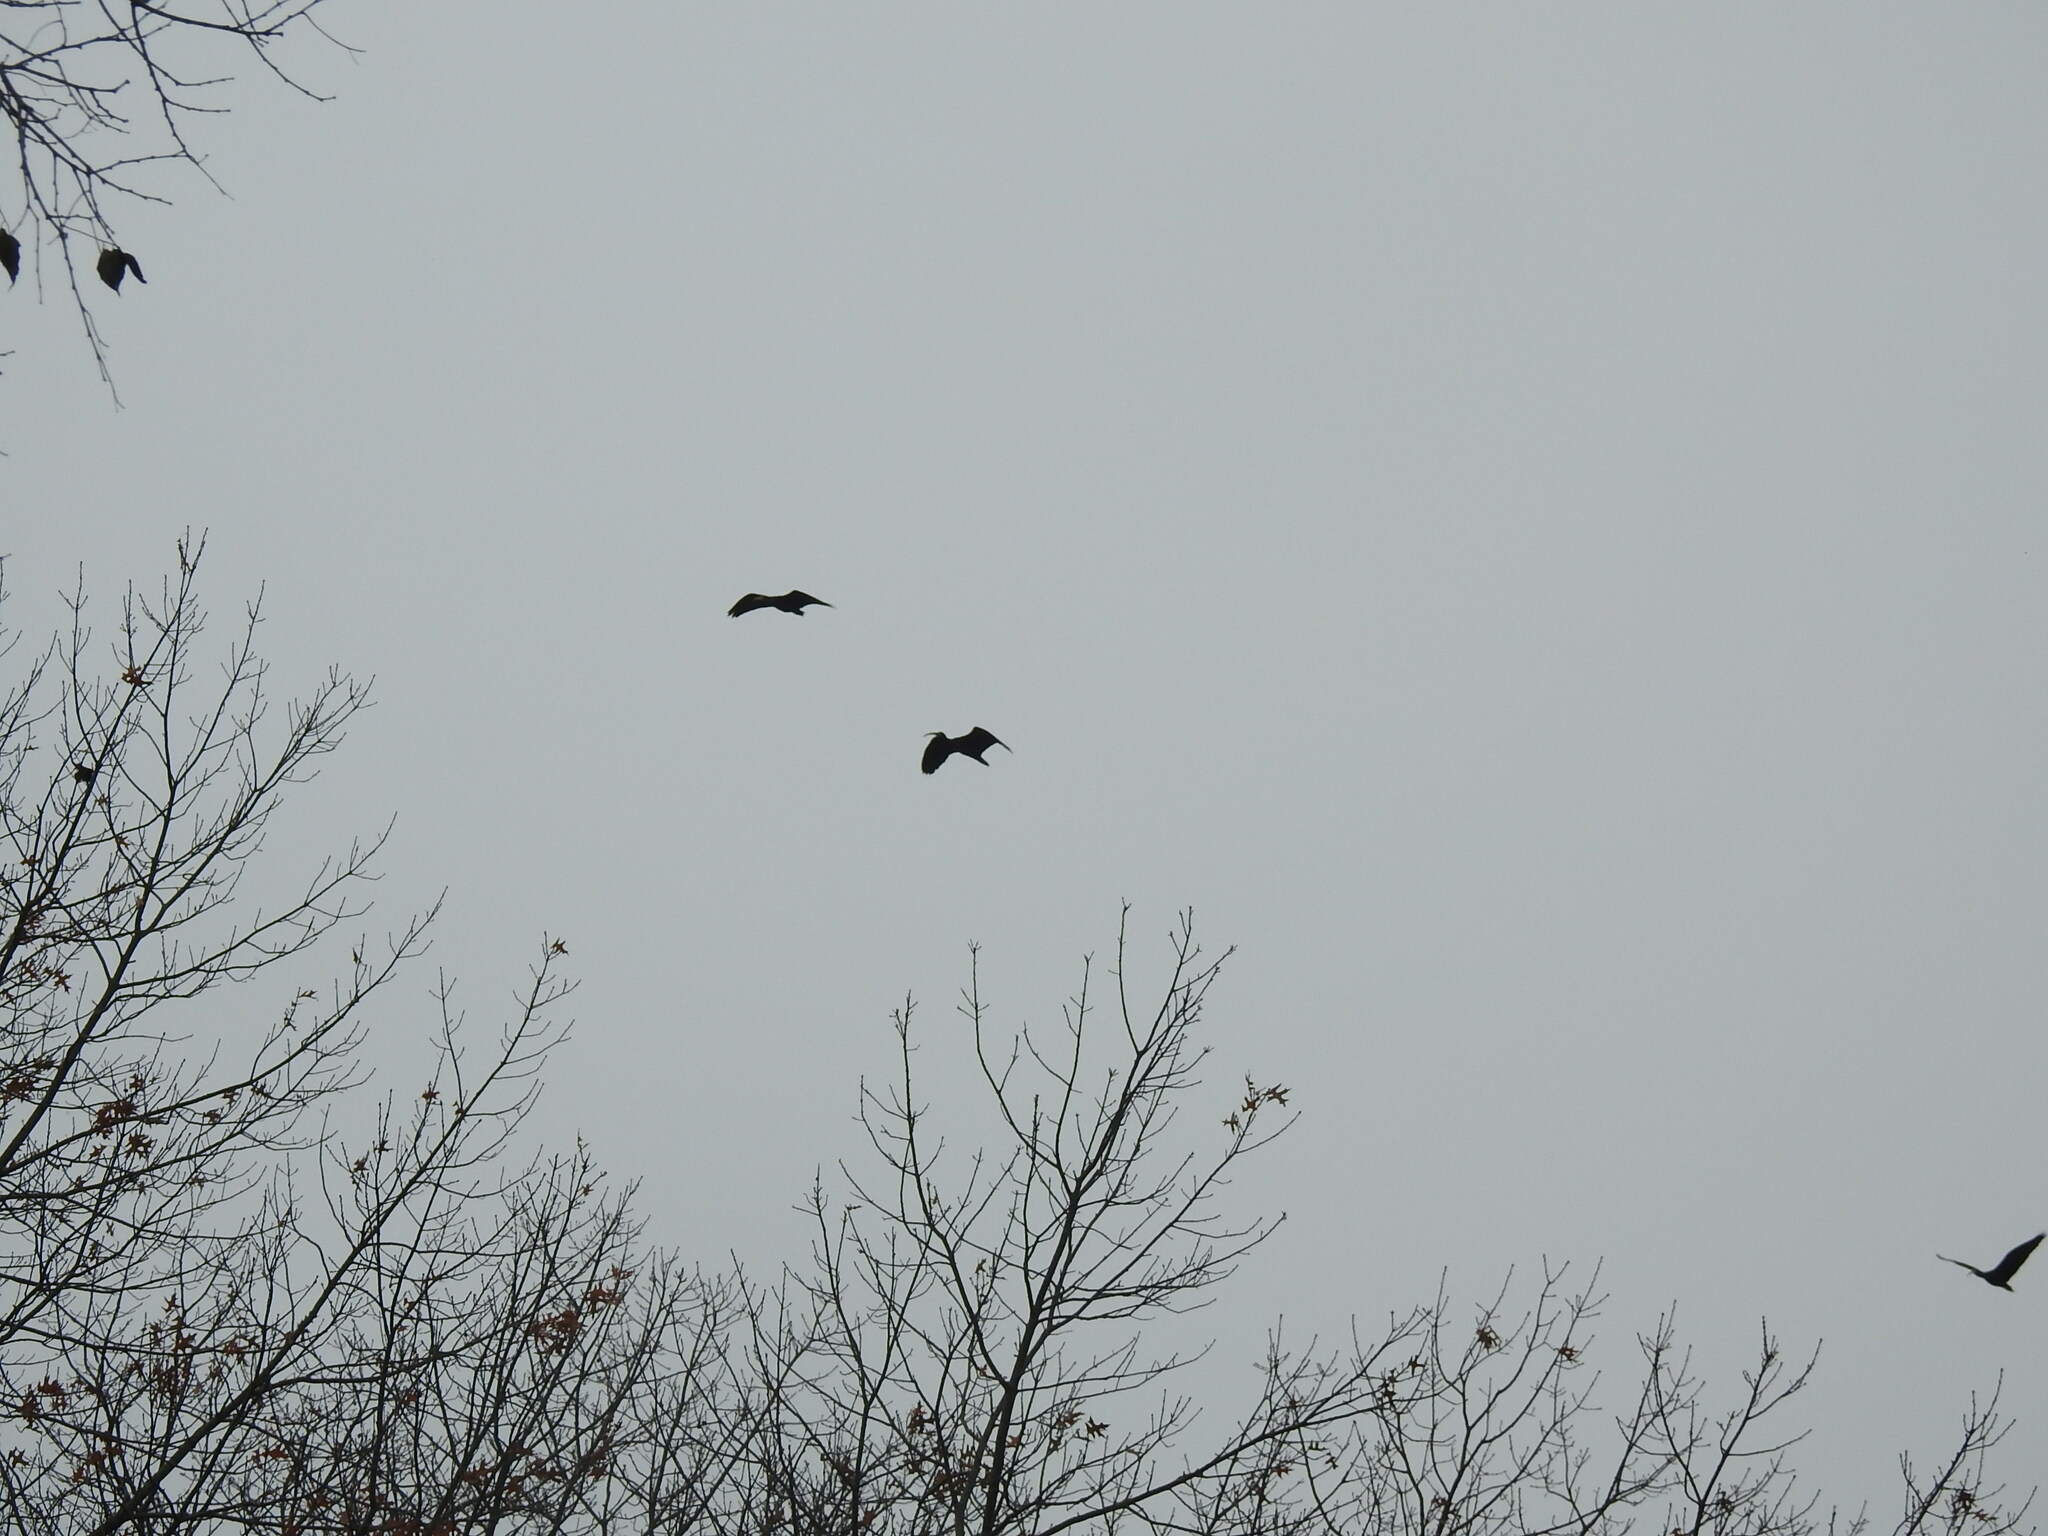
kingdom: Animalia
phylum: Chordata
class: Aves
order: Pelecaniformes
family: Threskiornithidae
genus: Phimosus
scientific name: Phimosus infuscatus
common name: Bare-faced ibis
